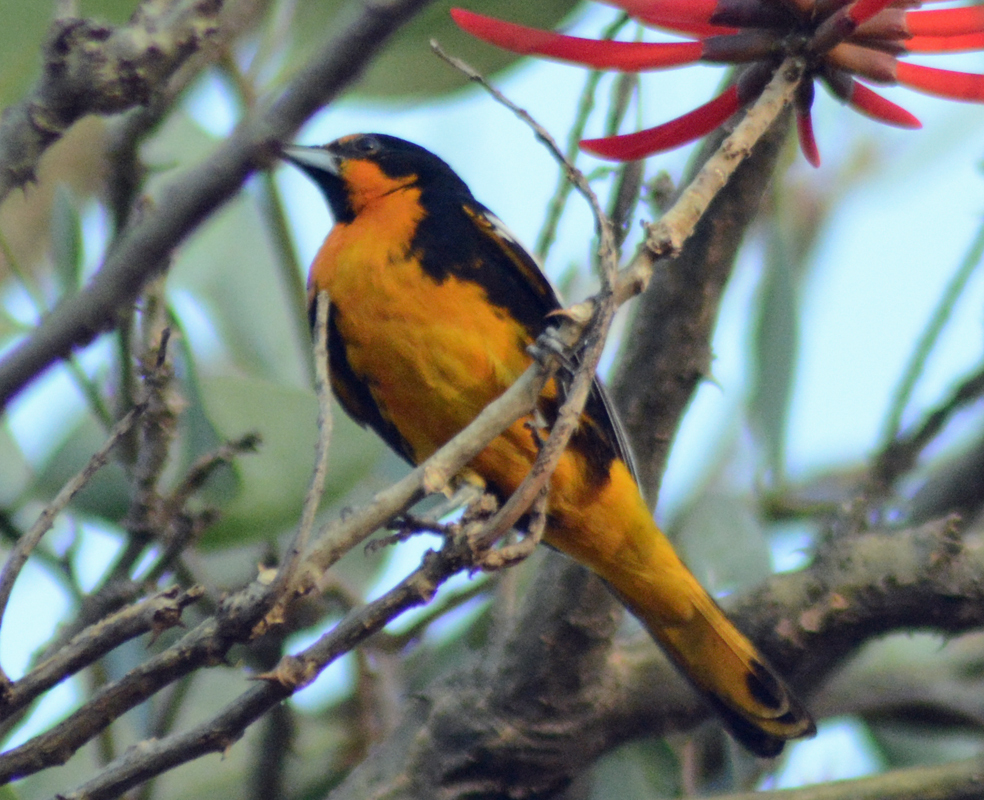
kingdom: Animalia
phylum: Chordata
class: Aves
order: Passeriformes
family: Icteridae
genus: Icterus
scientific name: Icterus abeillei
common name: Black-backed oriole
